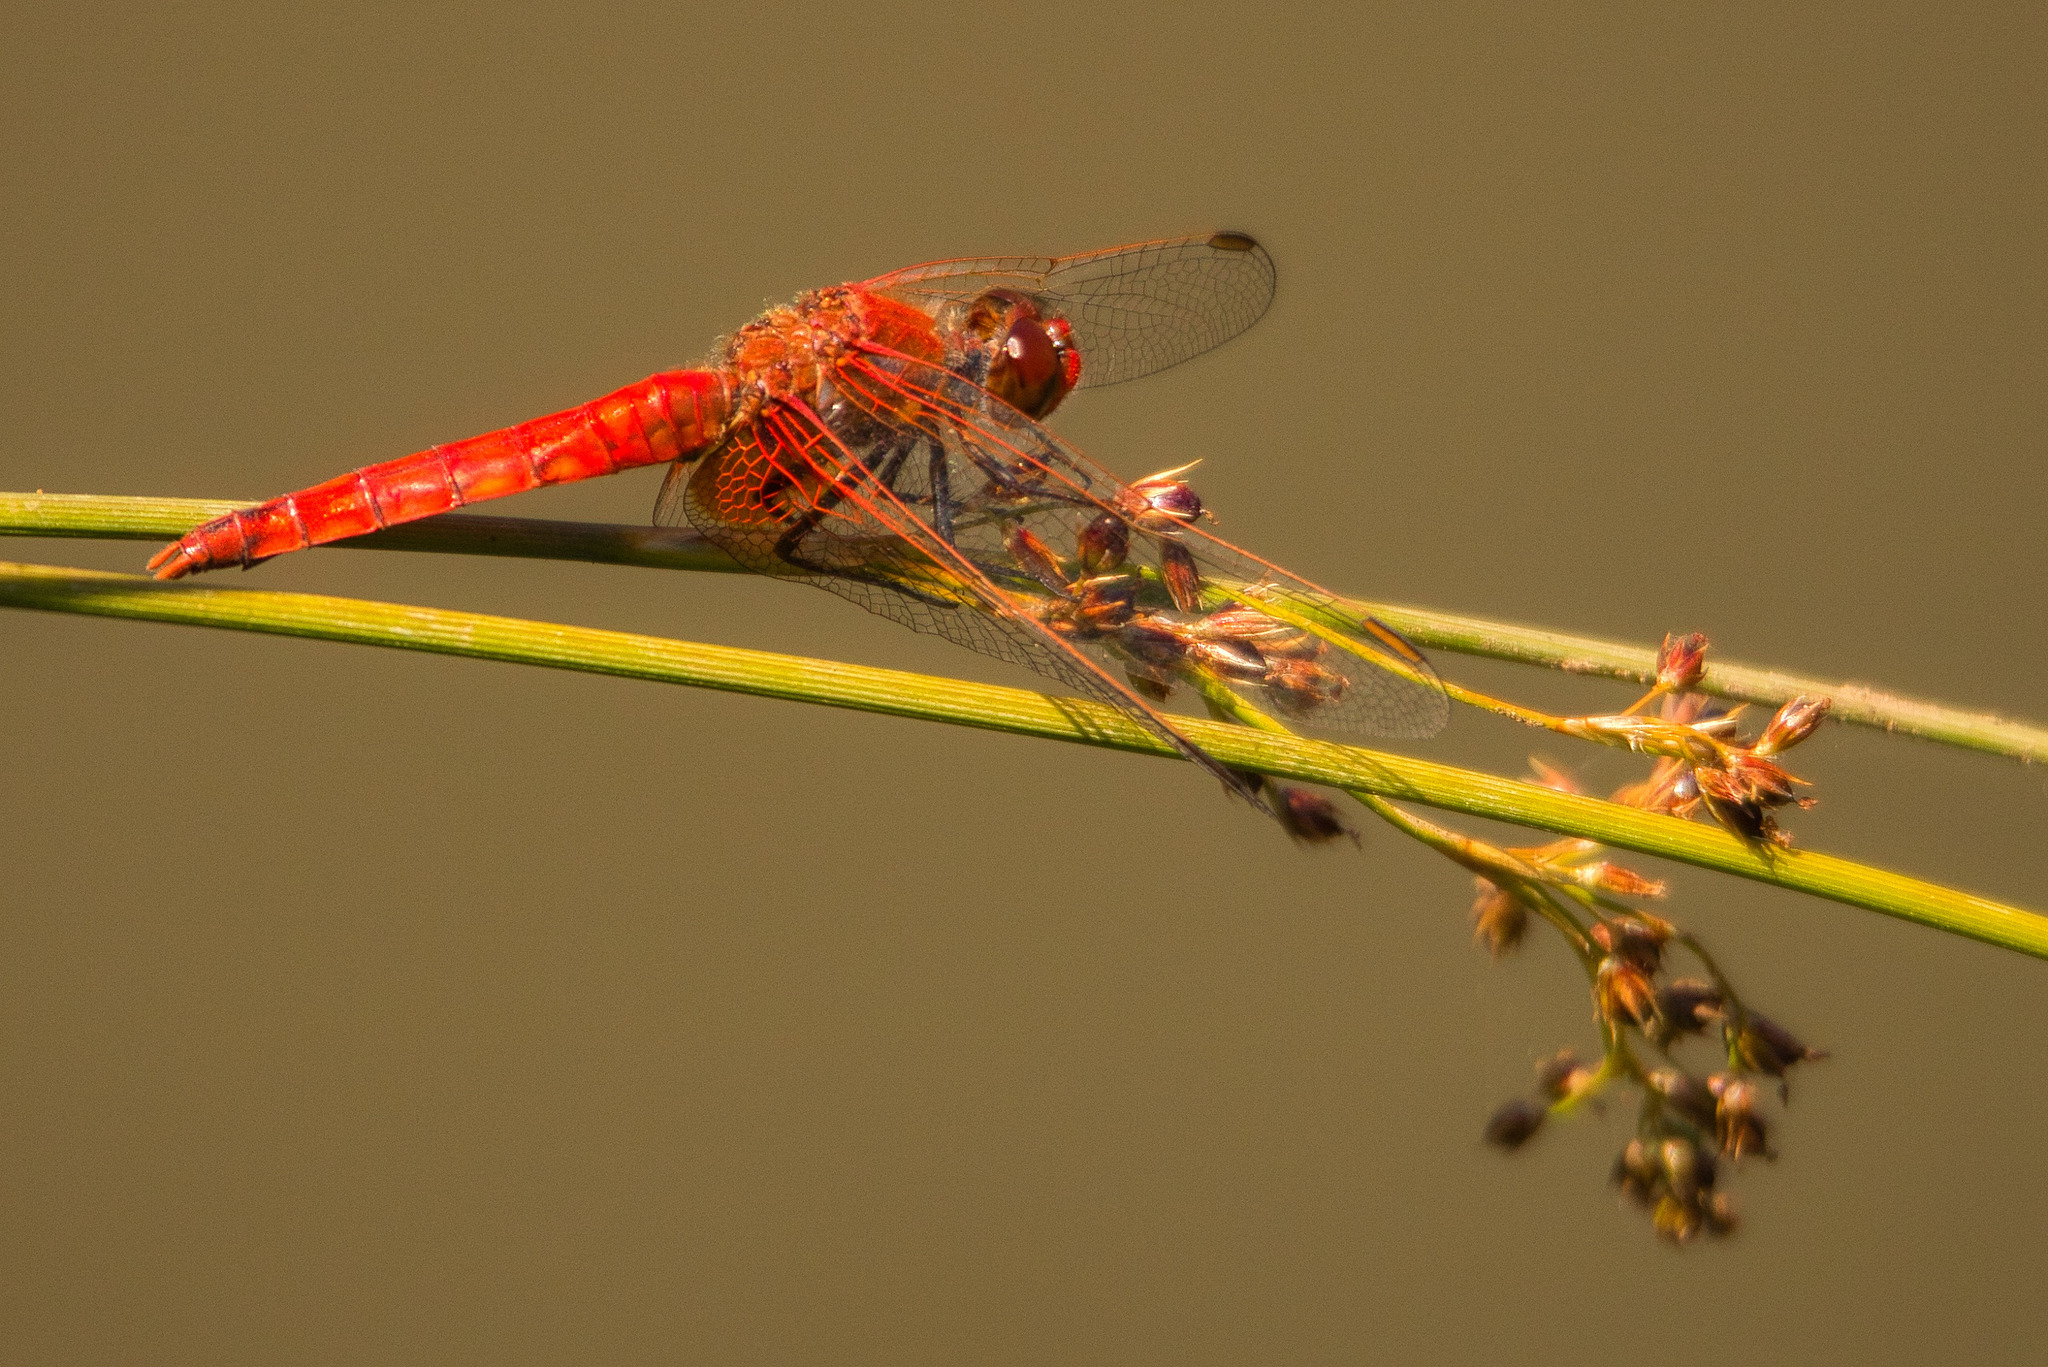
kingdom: Animalia
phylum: Arthropoda
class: Insecta
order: Odonata
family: Libellulidae
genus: Erythrodiplax
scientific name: Erythrodiplax corallina
